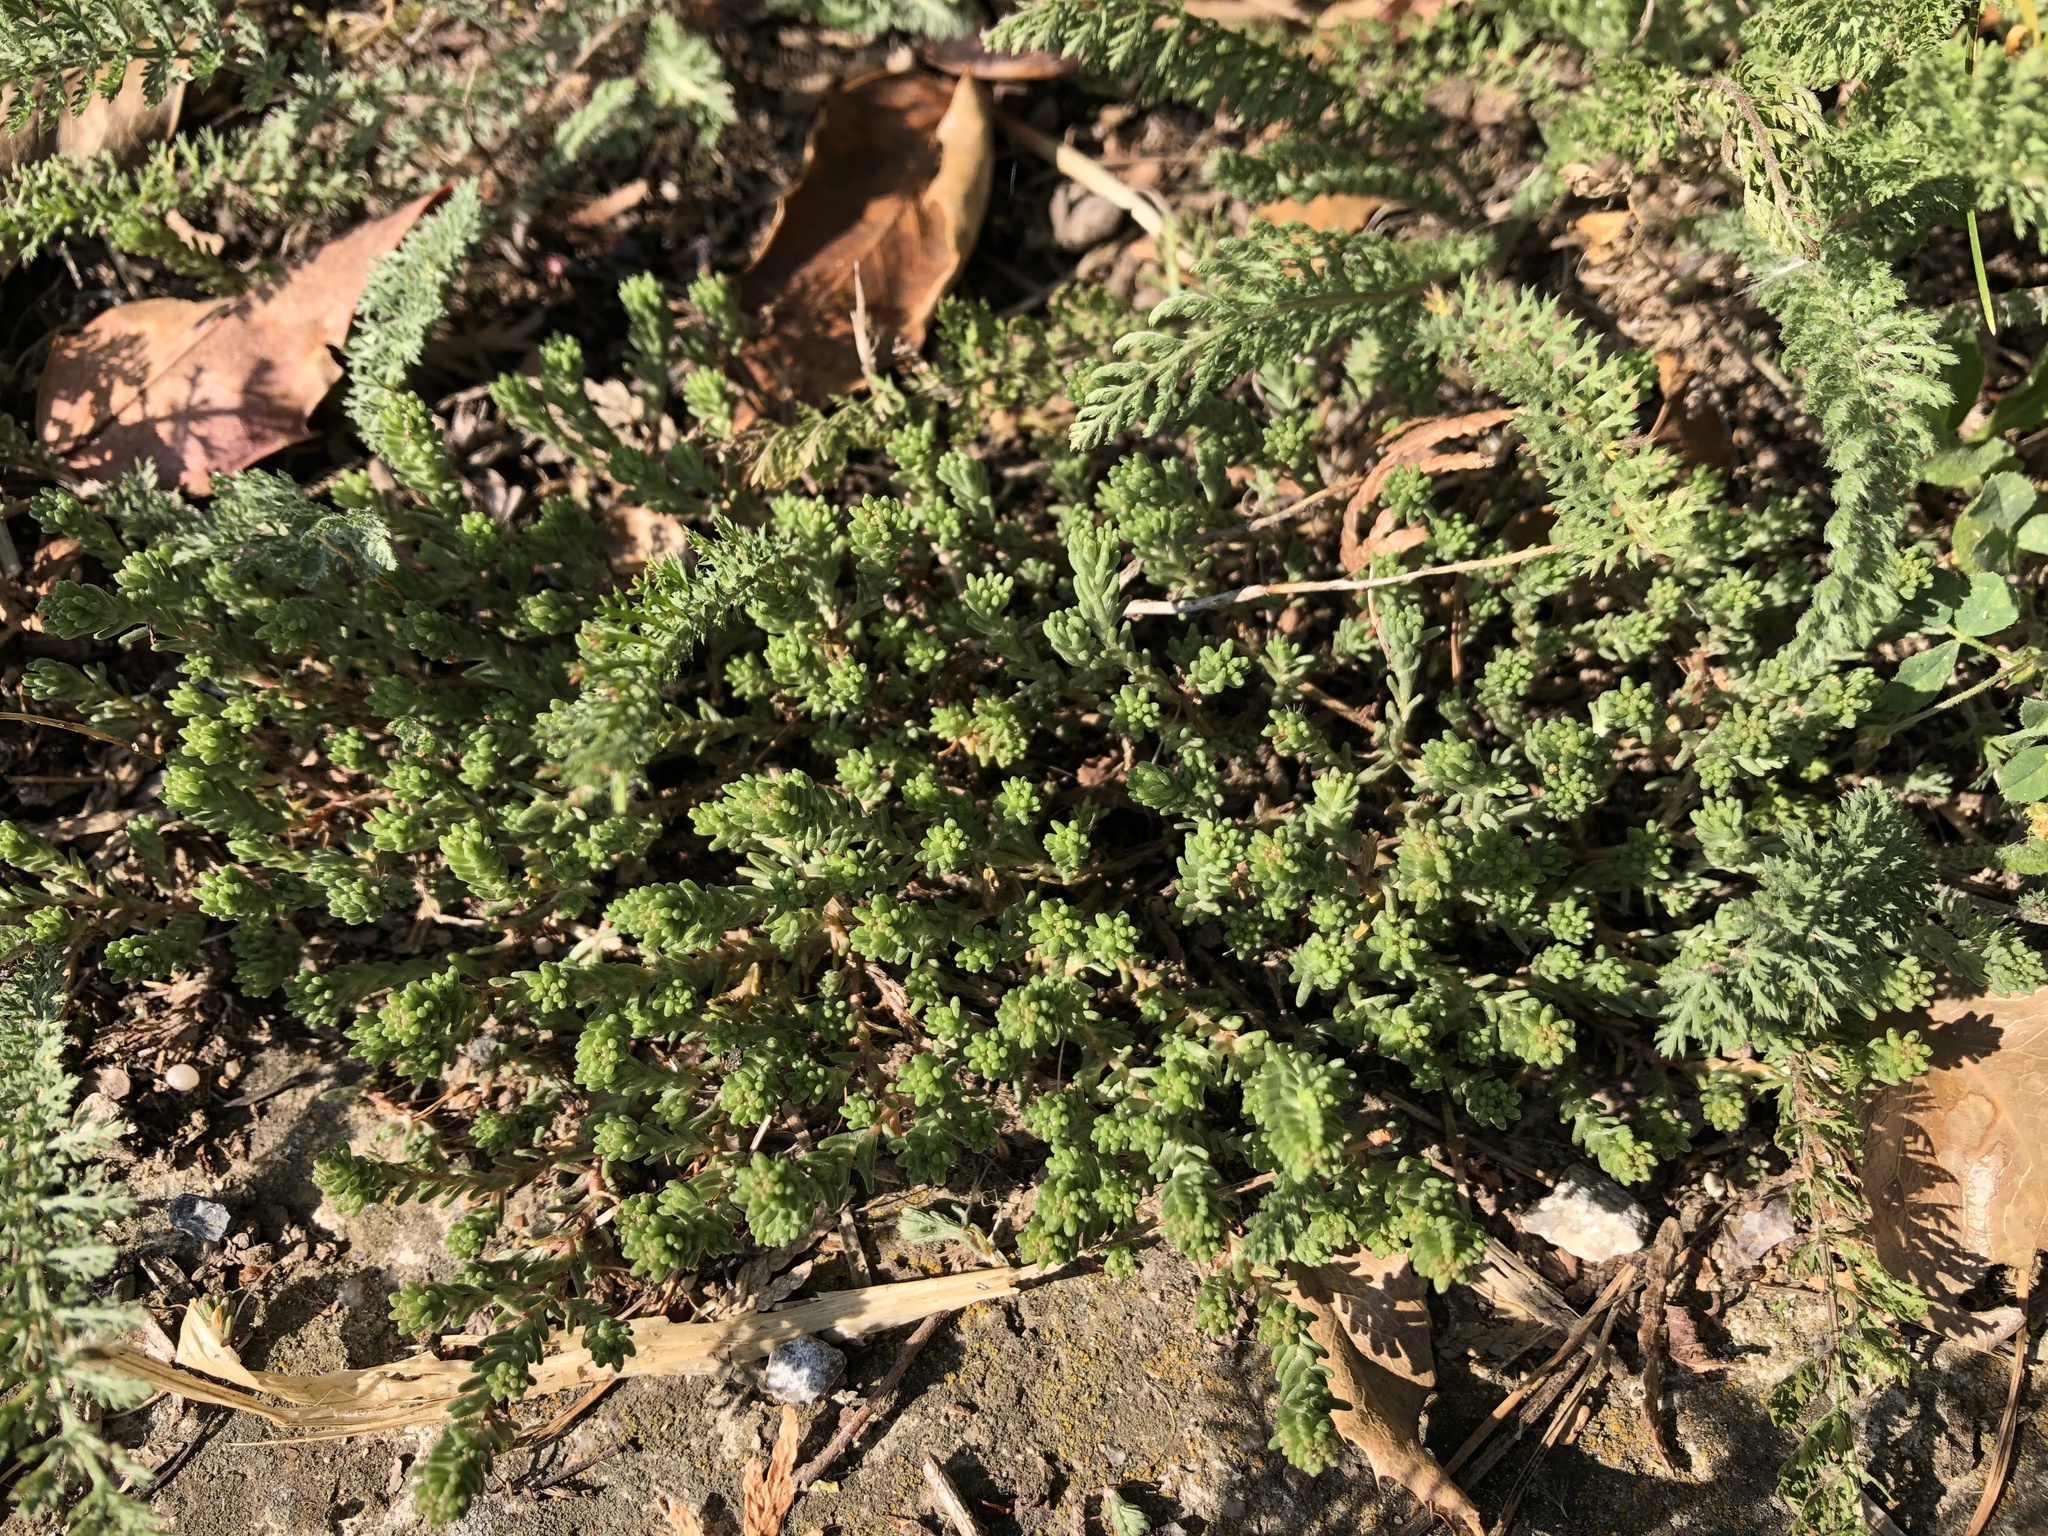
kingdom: Plantae
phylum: Tracheophyta
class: Magnoliopsida
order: Saxifragales
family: Crassulaceae
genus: Sedum
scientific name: Sedum sexangulare
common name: Tasteless stonecrop
